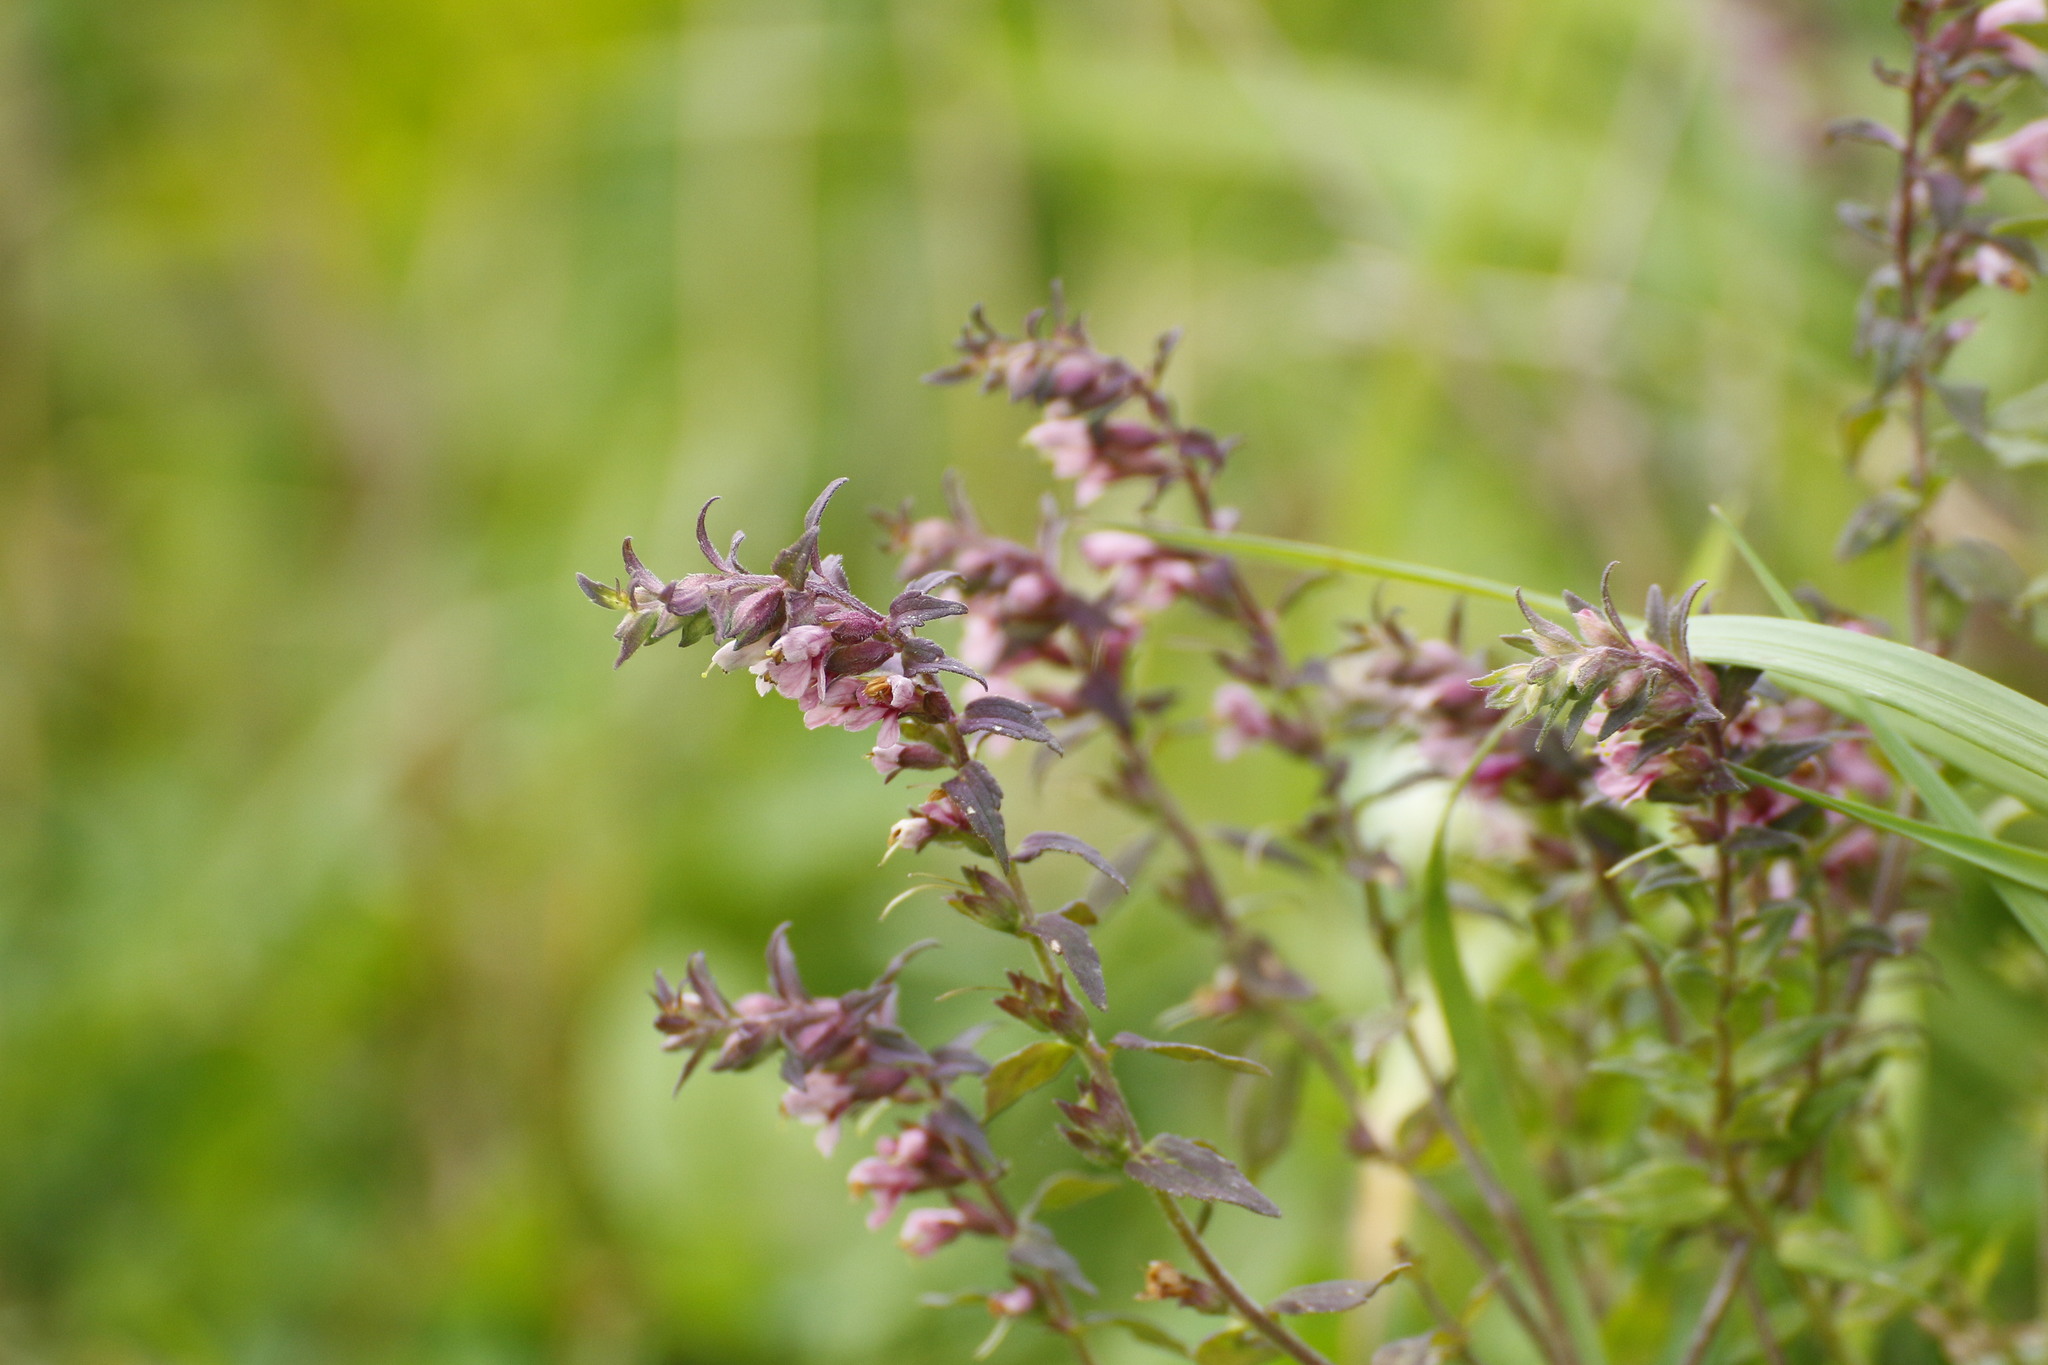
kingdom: Plantae
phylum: Tracheophyta
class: Magnoliopsida
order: Lamiales
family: Orobanchaceae
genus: Odontites
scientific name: Odontites vulgaris
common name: Broomrape
